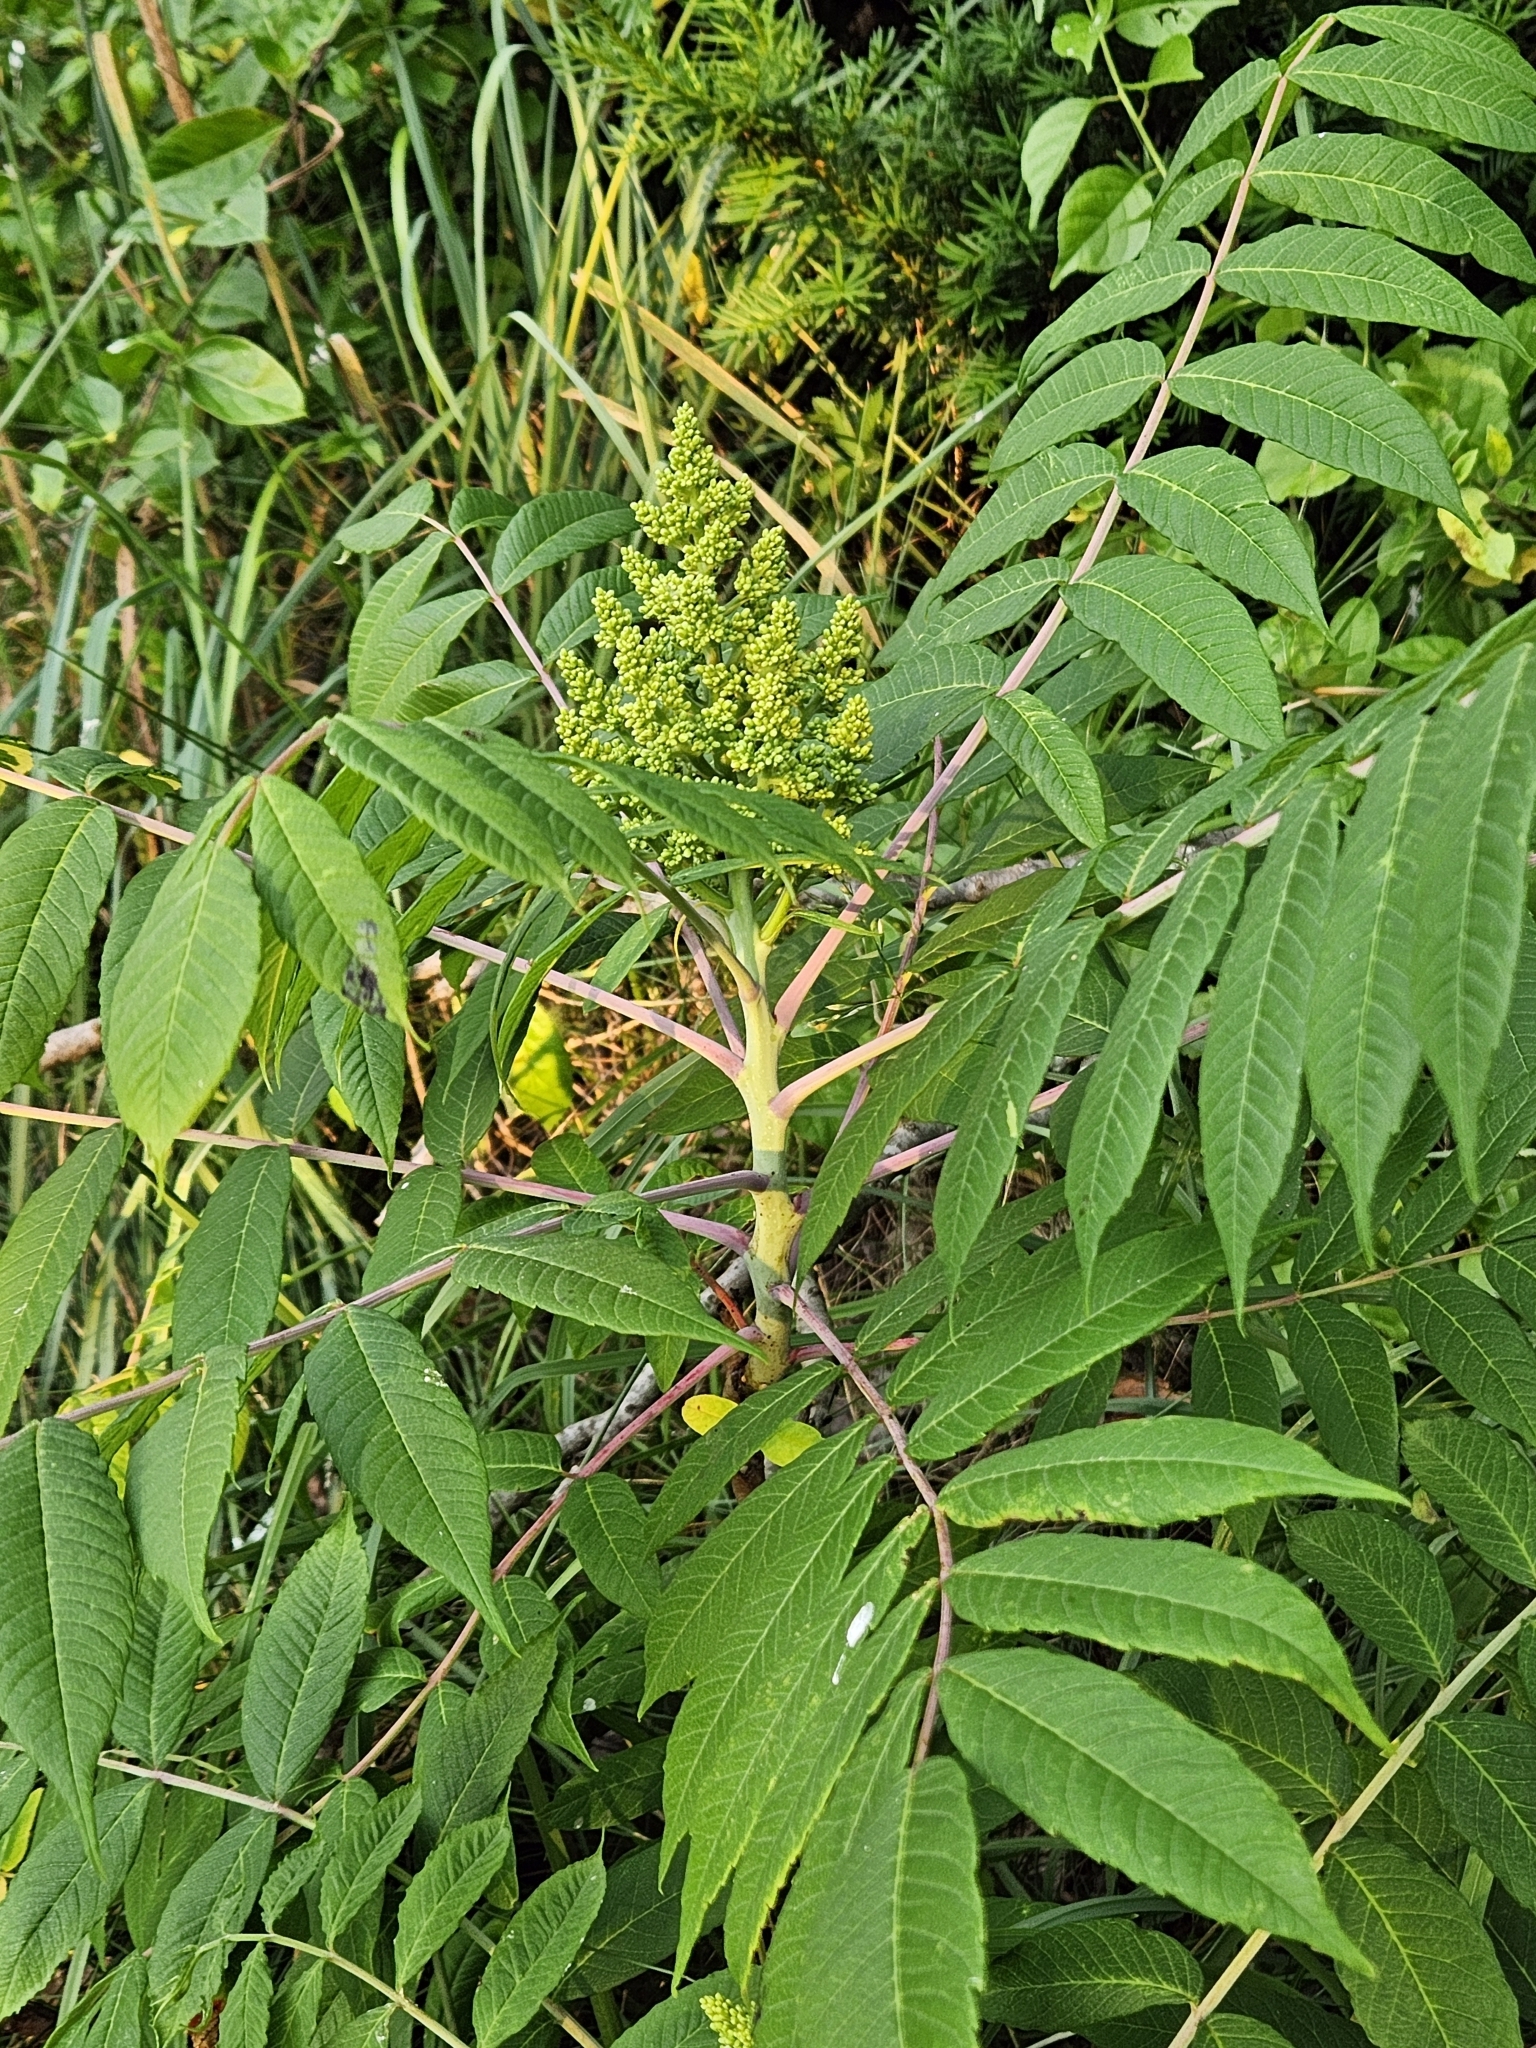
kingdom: Plantae
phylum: Tracheophyta
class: Magnoliopsida
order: Sapindales
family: Anacardiaceae
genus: Rhus
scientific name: Rhus glabra
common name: Scarlet sumac
